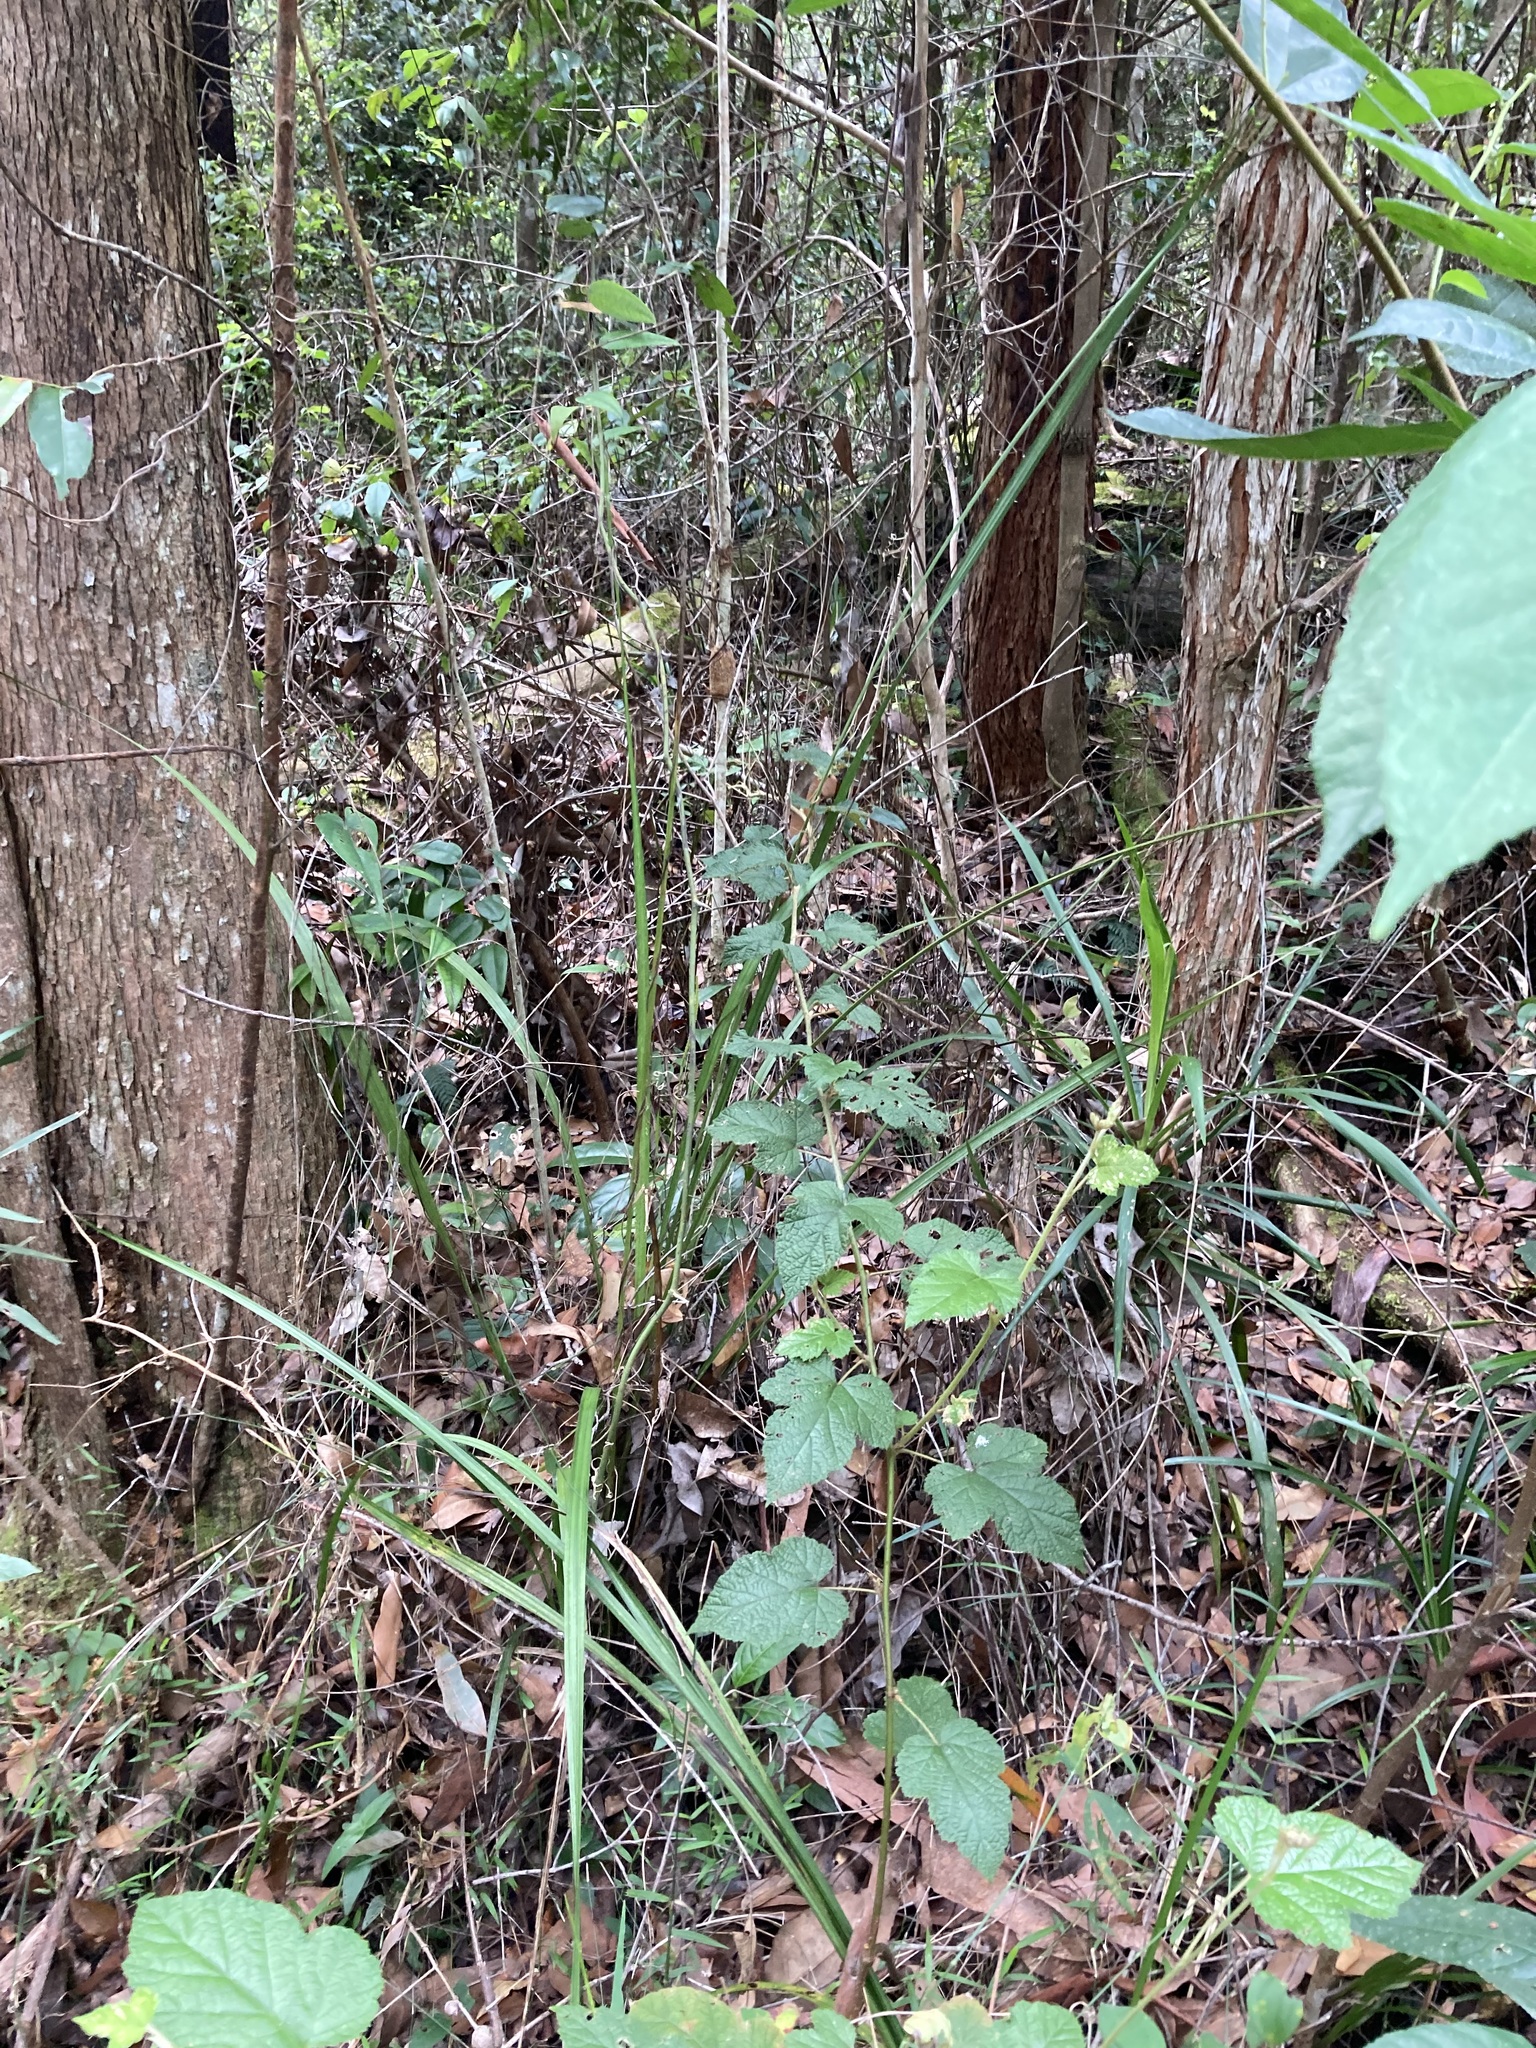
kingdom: Plantae
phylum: Tracheophyta
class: Liliopsida
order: Alismatales
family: Araceae
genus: Gymnostachys
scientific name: Gymnostachys anceps
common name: Settler's-flax
